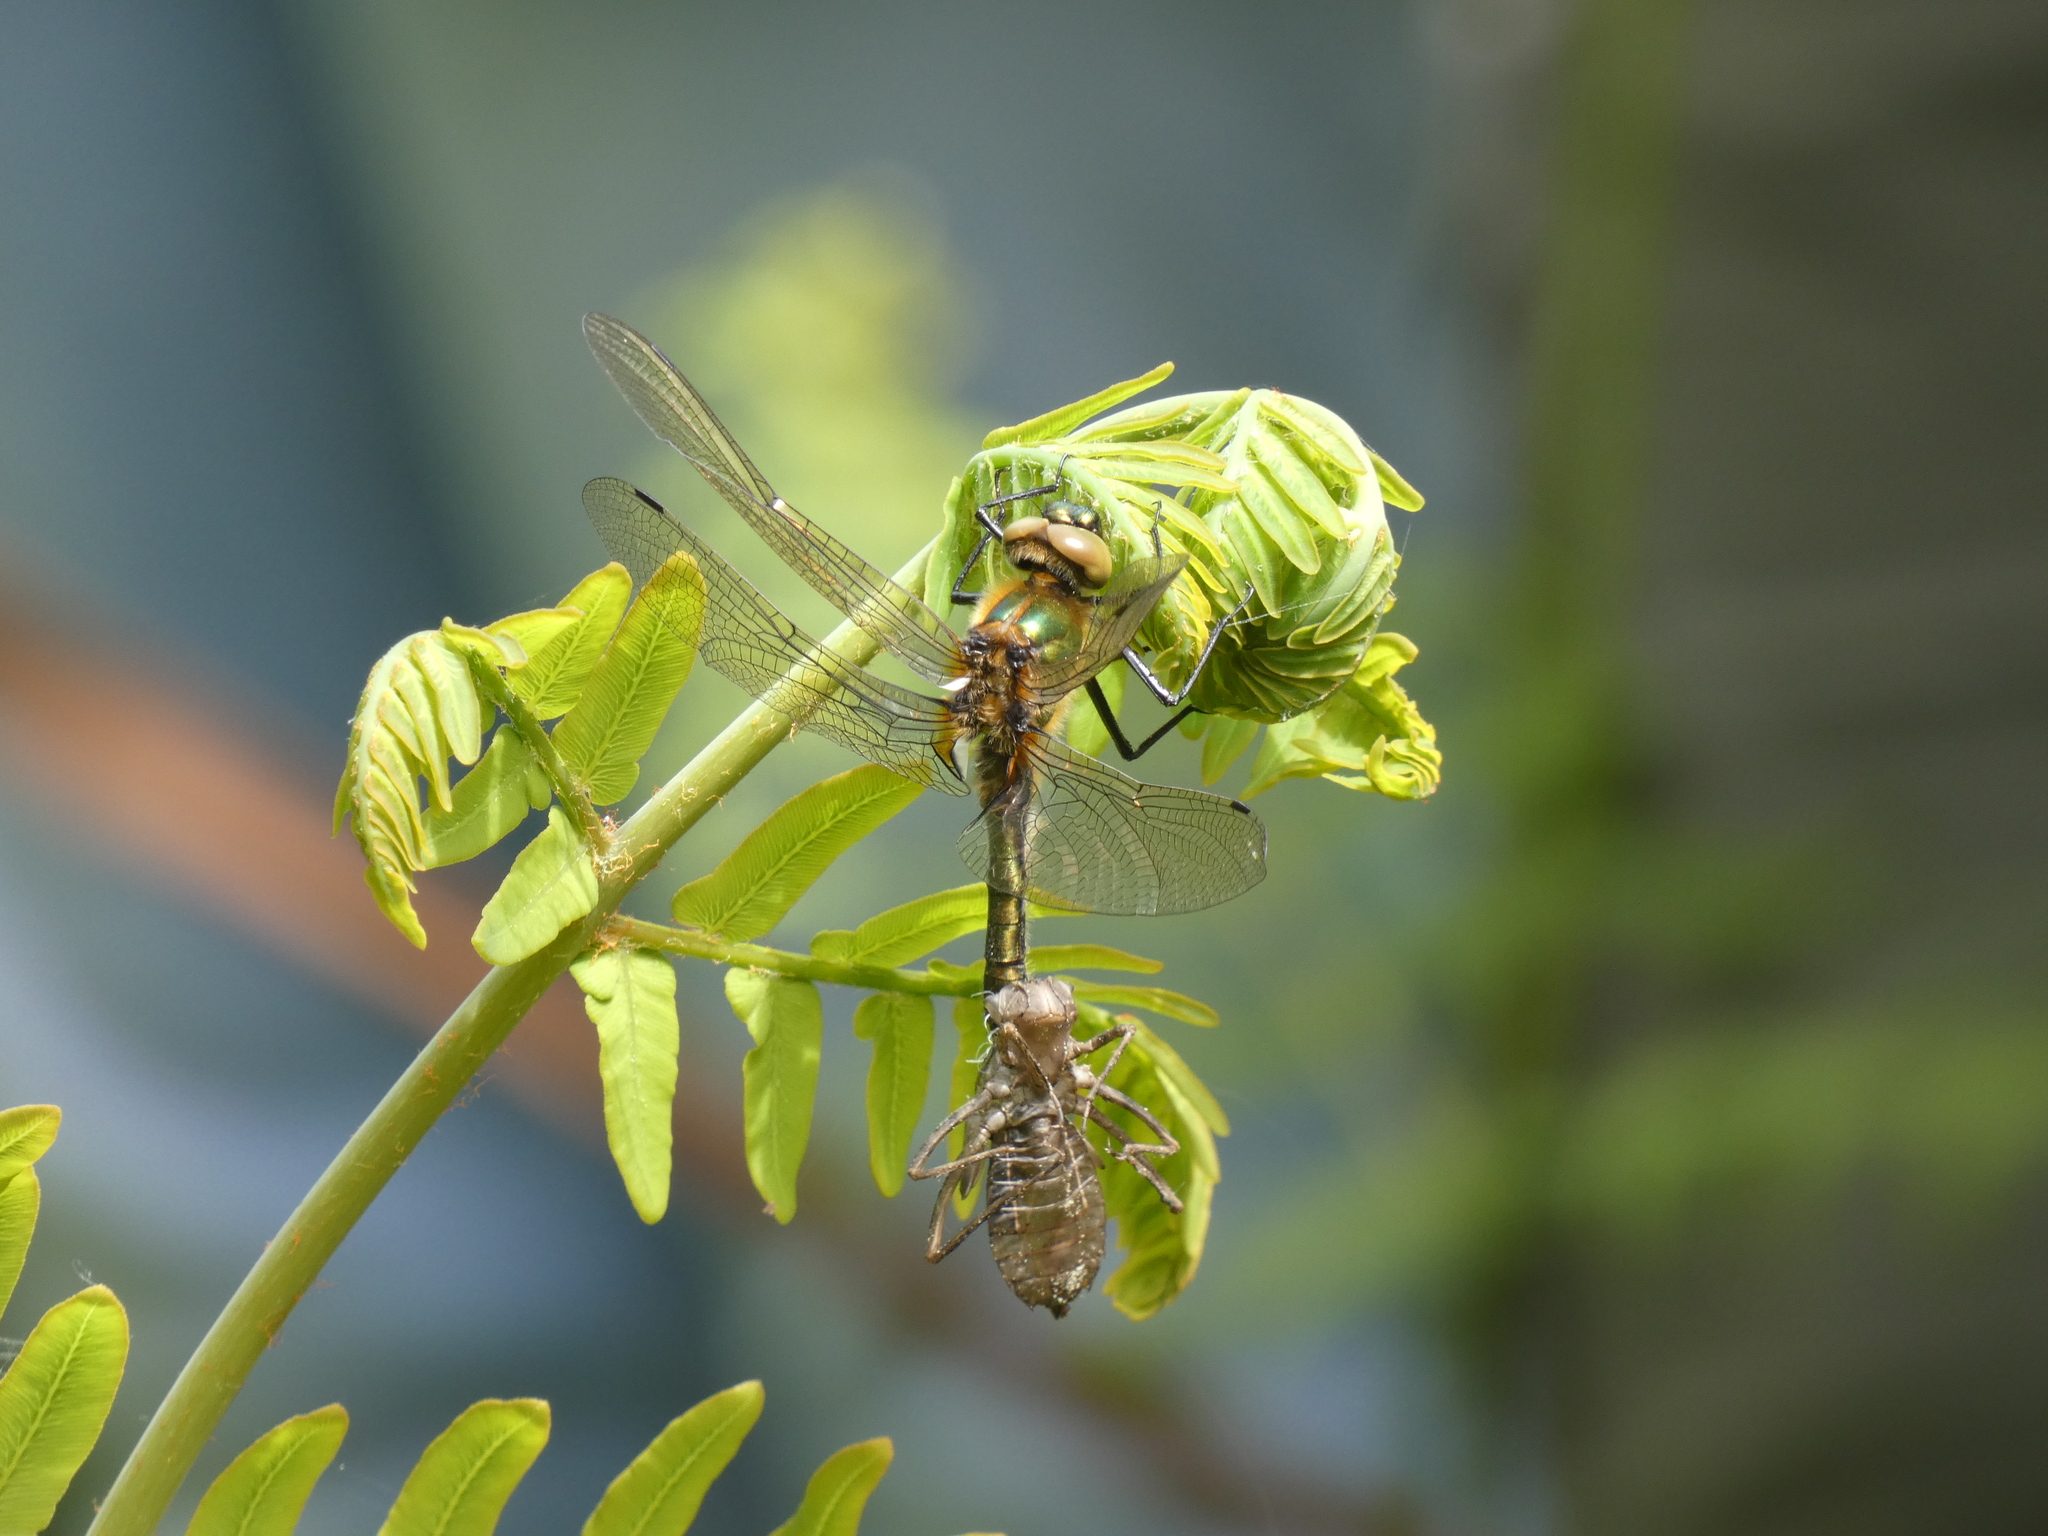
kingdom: Animalia
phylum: Arthropoda
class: Insecta
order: Odonata
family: Corduliidae
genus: Cordulia
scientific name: Cordulia aenea
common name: Downy emerald
